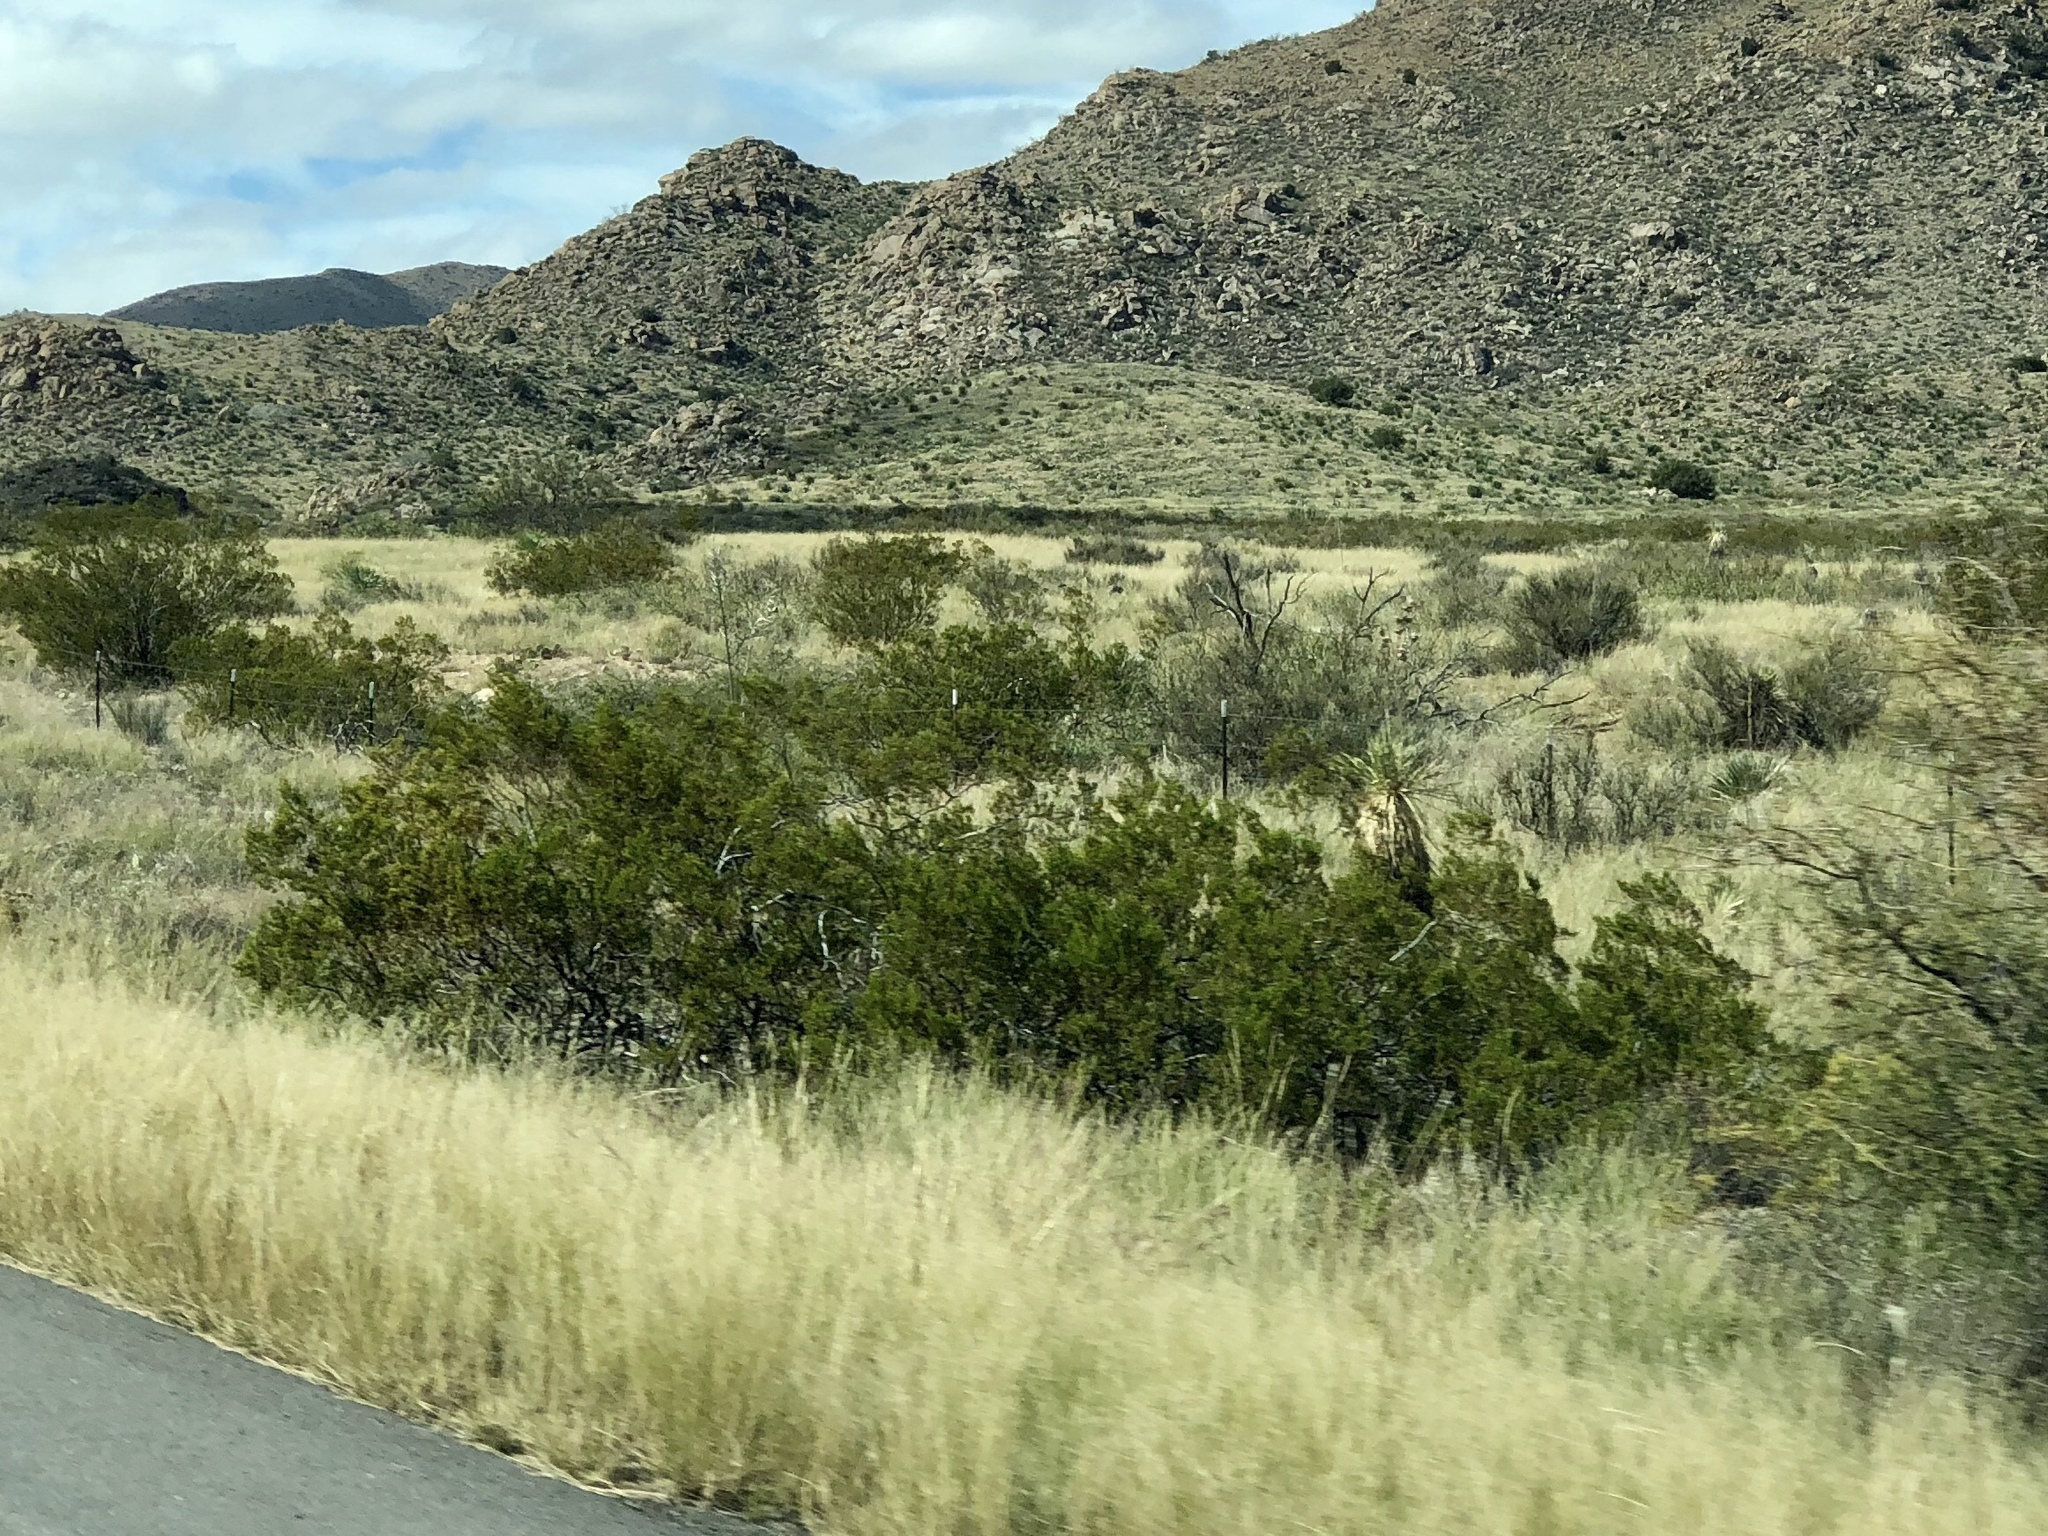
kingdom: Plantae
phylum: Tracheophyta
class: Magnoliopsida
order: Zygophyllales
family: Zygophyllaceae
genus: Larrea
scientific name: Larrea tridentata
